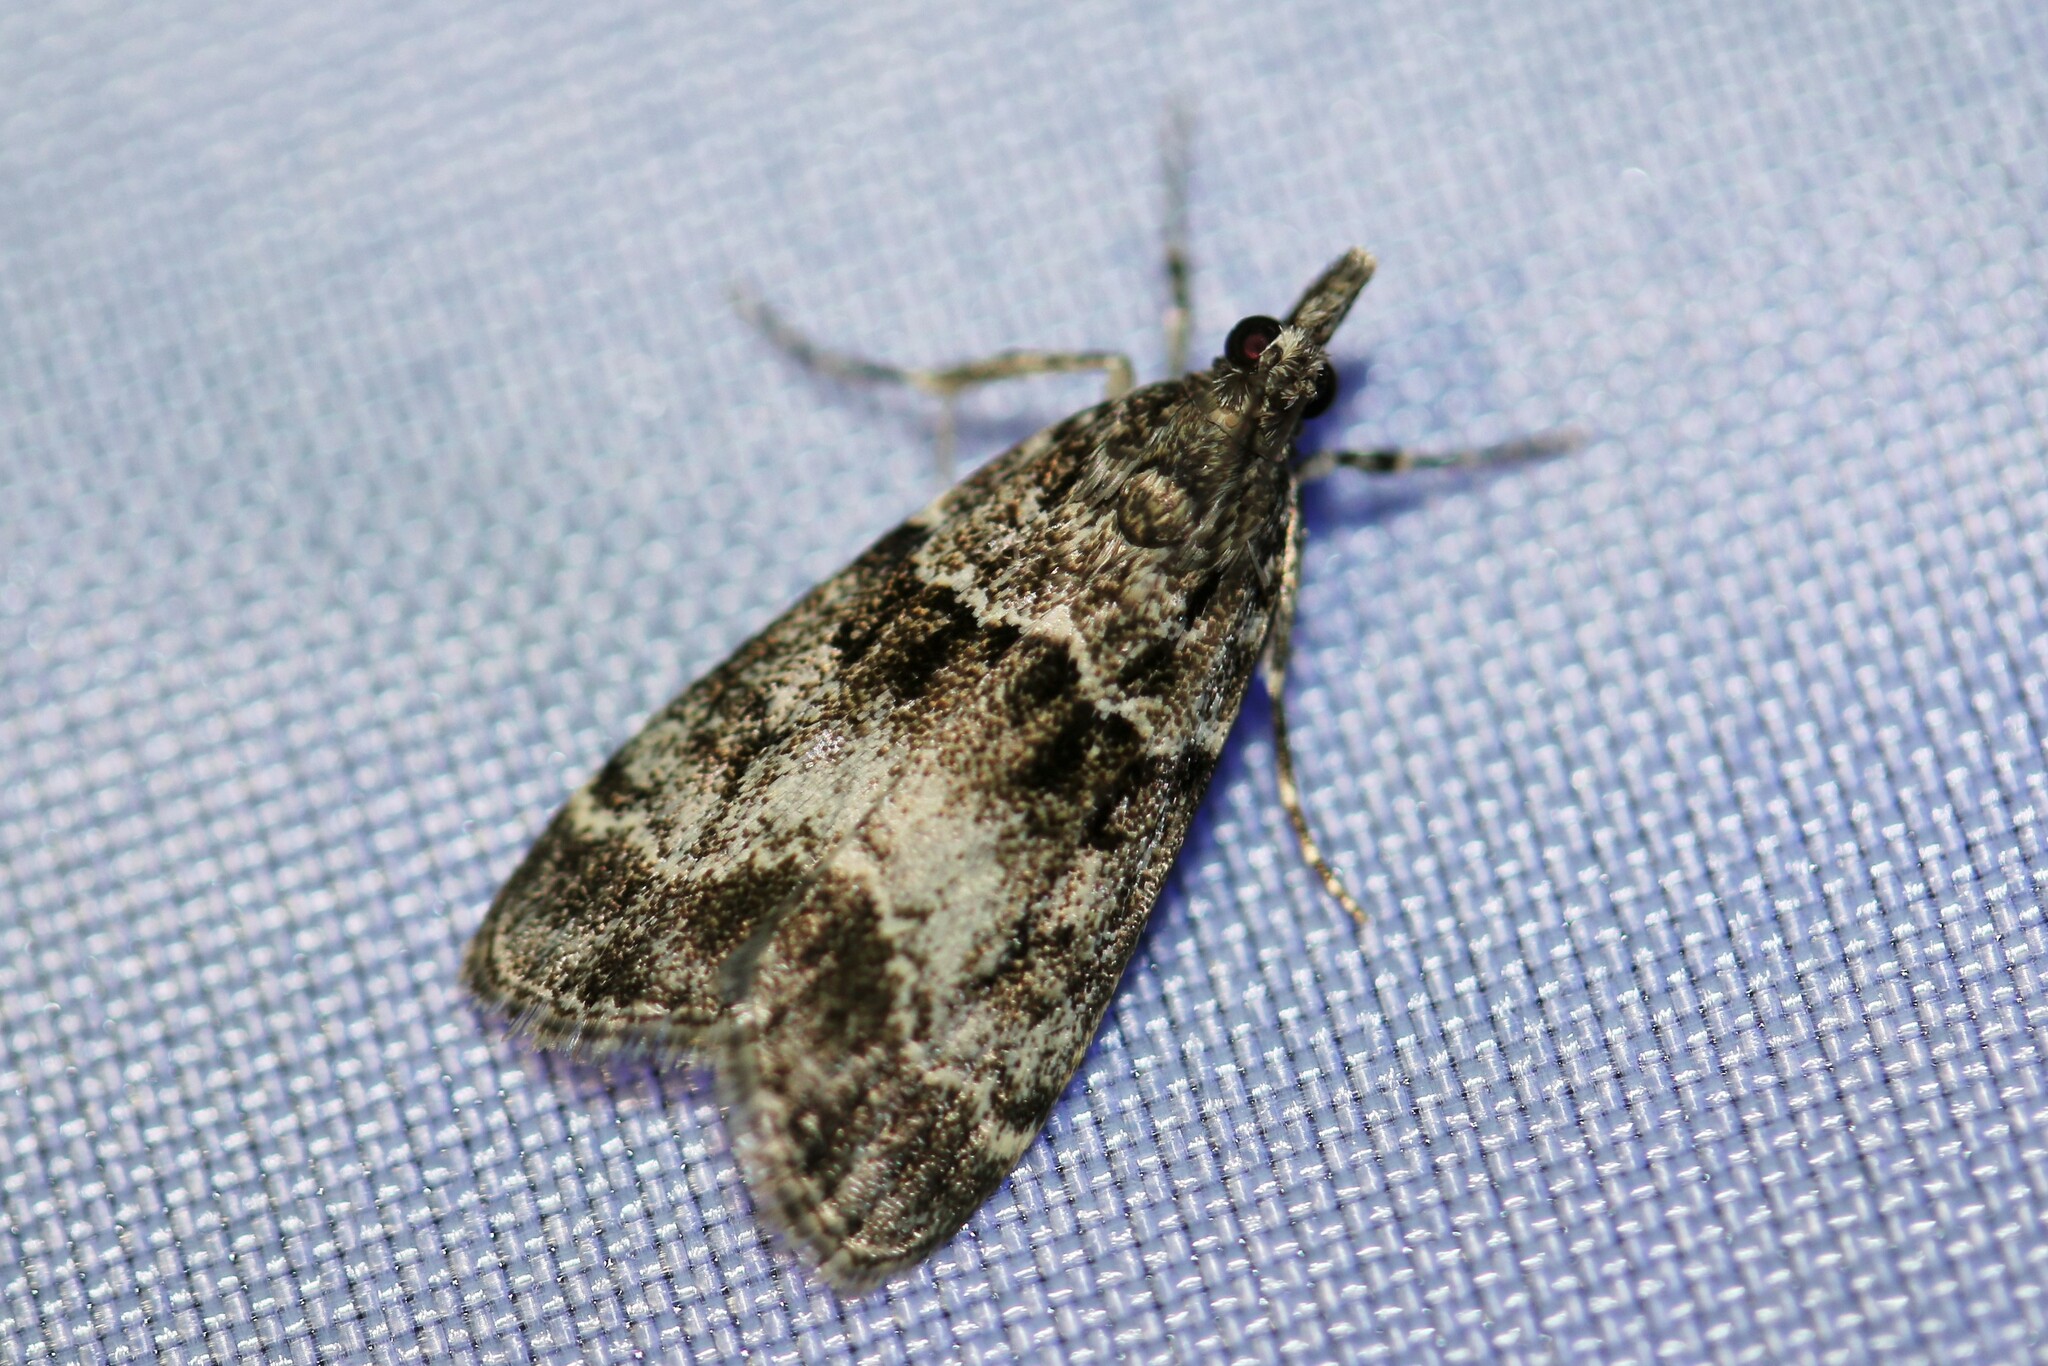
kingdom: Animalia
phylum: Arthropoda
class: Insecta
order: Lepidoptera
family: Crambidae
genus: Eudonia
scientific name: Eudonia mercurella
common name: Small grey
